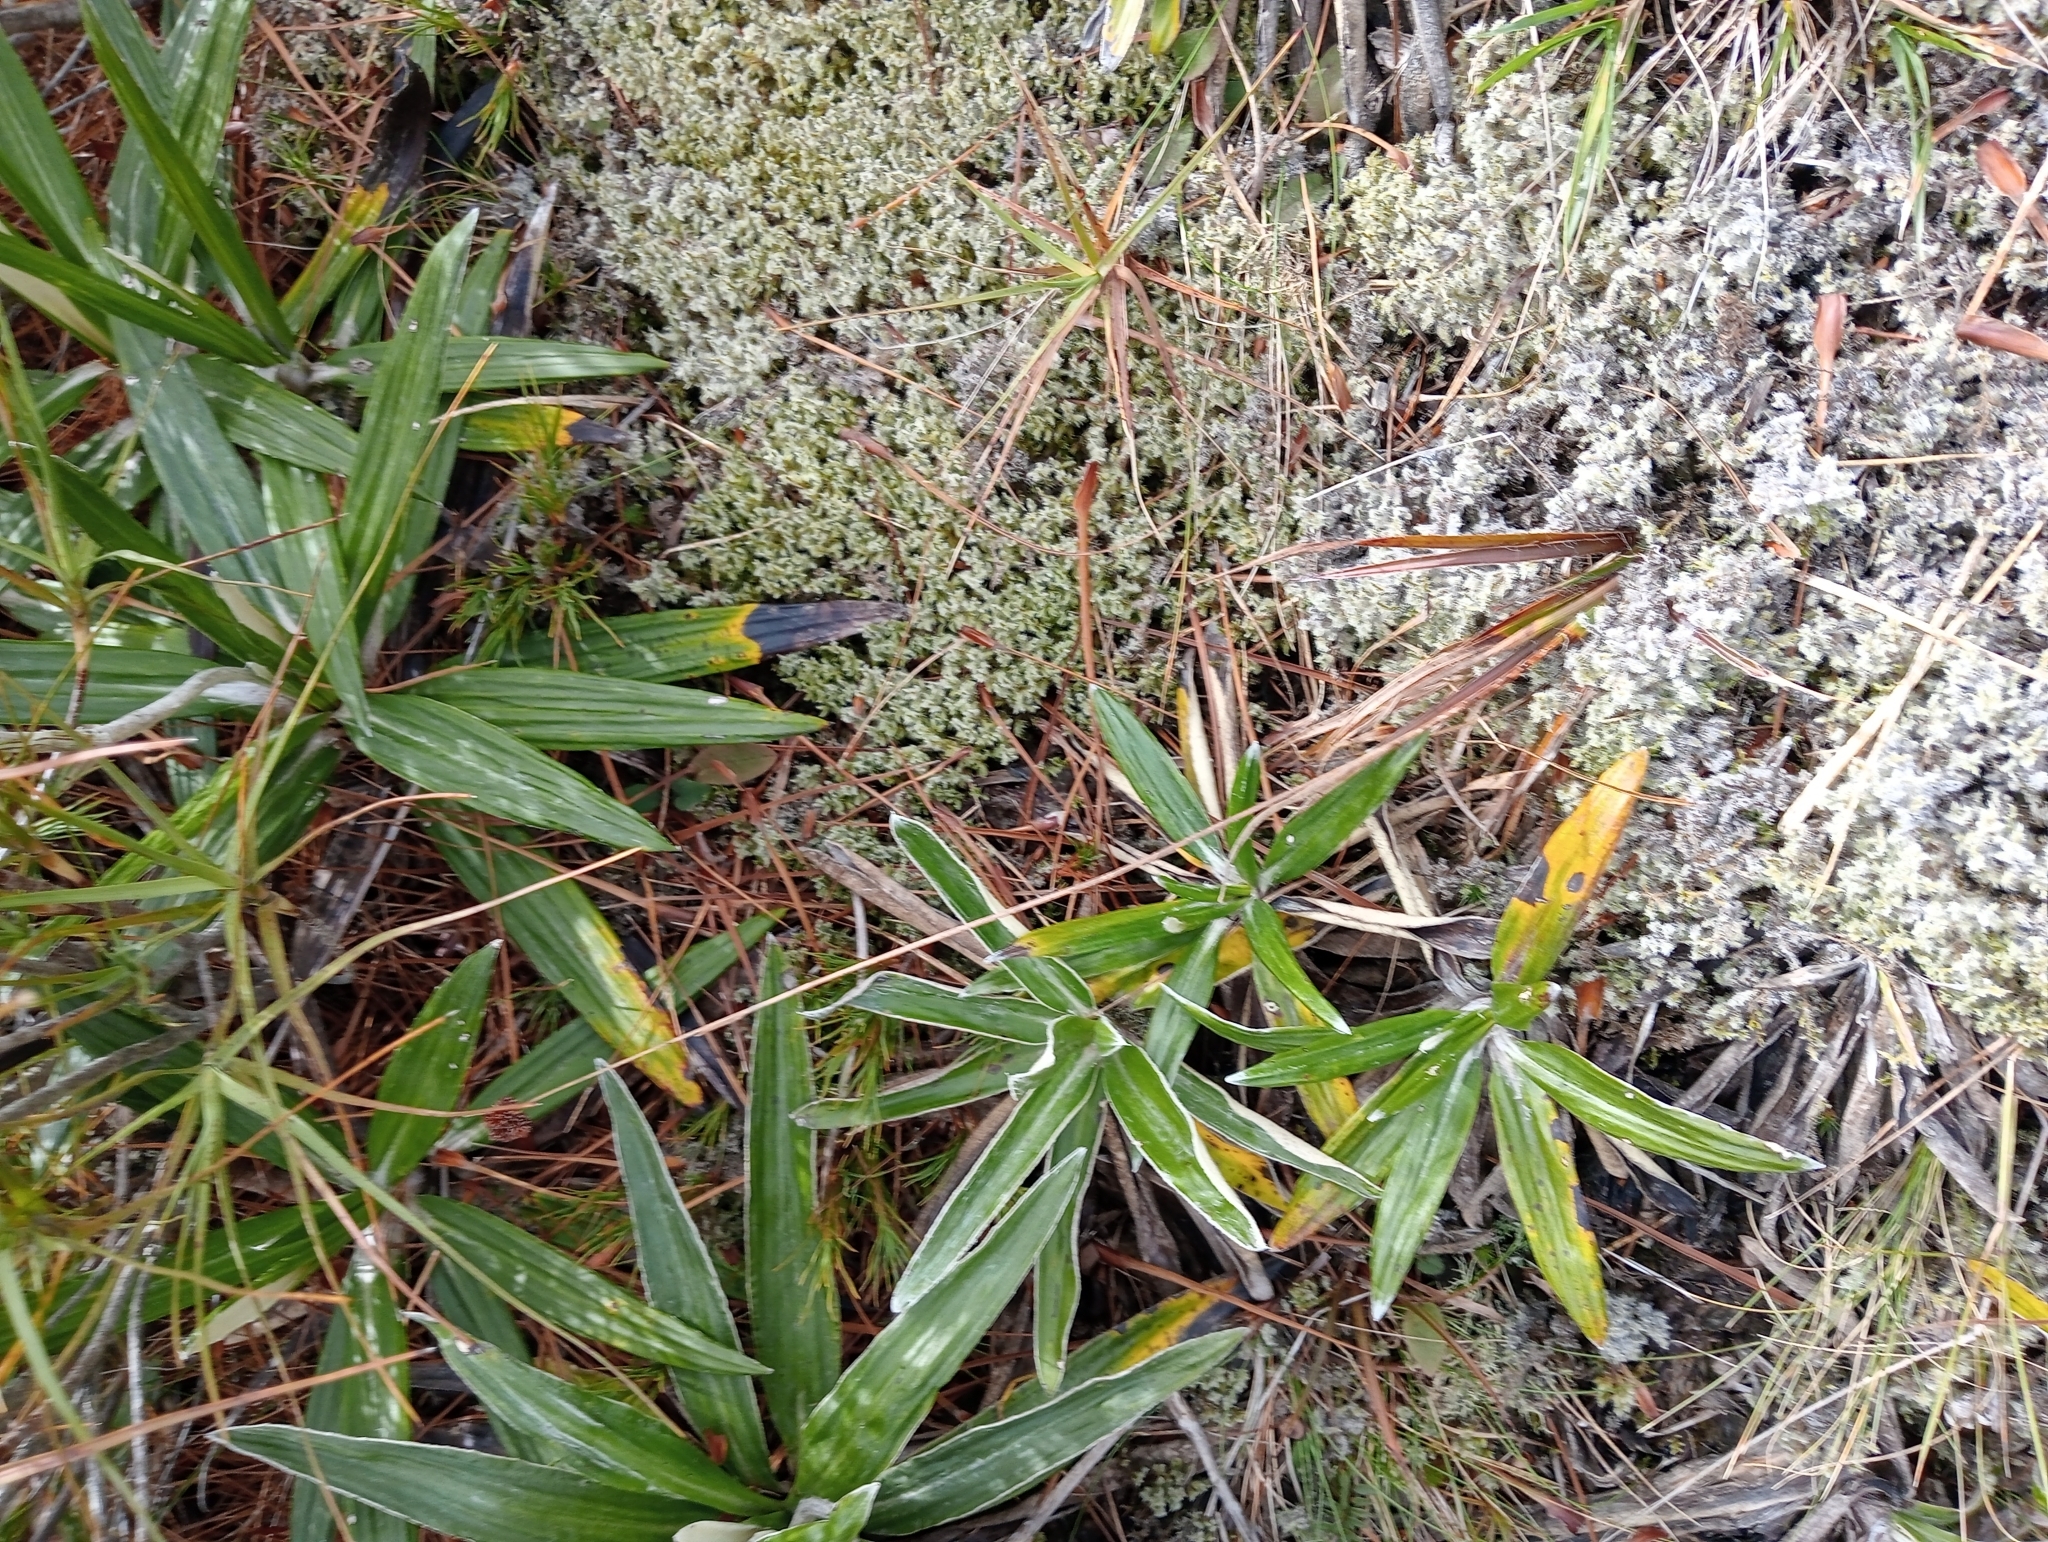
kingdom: Plantae
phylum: Tracheophyta
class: Liliopsida
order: Poales
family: Juncaceae
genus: Luzula
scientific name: Luzula rufa
